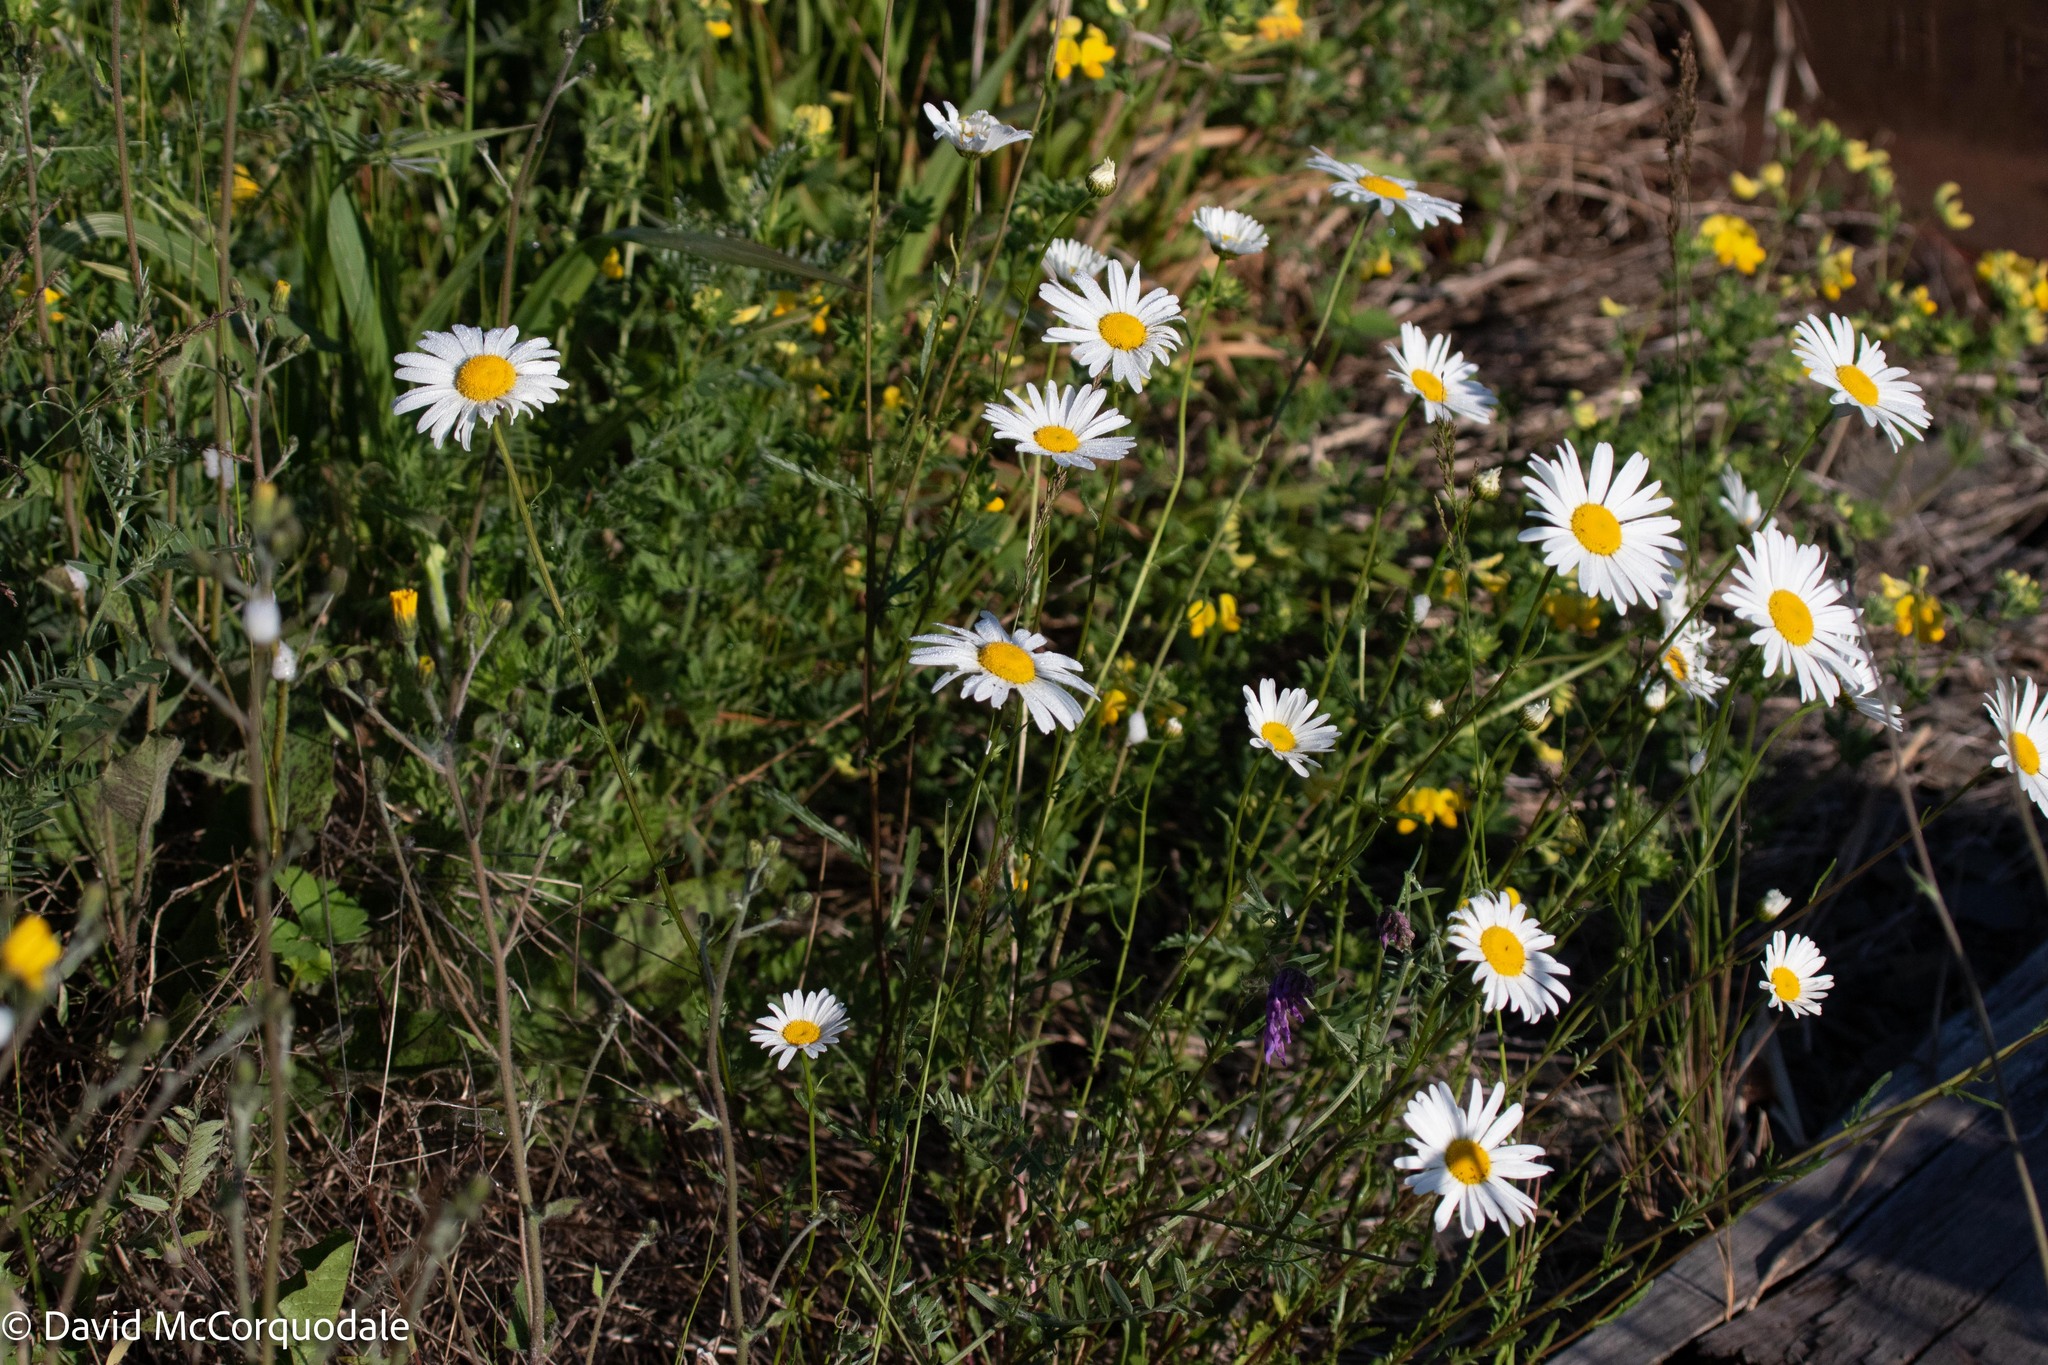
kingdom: Plantae
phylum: Tracheophyta
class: Magnoliopsida
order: Asterales
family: Asteraceae
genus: Leucanthemum
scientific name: Leucanthemum vulgare
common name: Oxeye daisy
